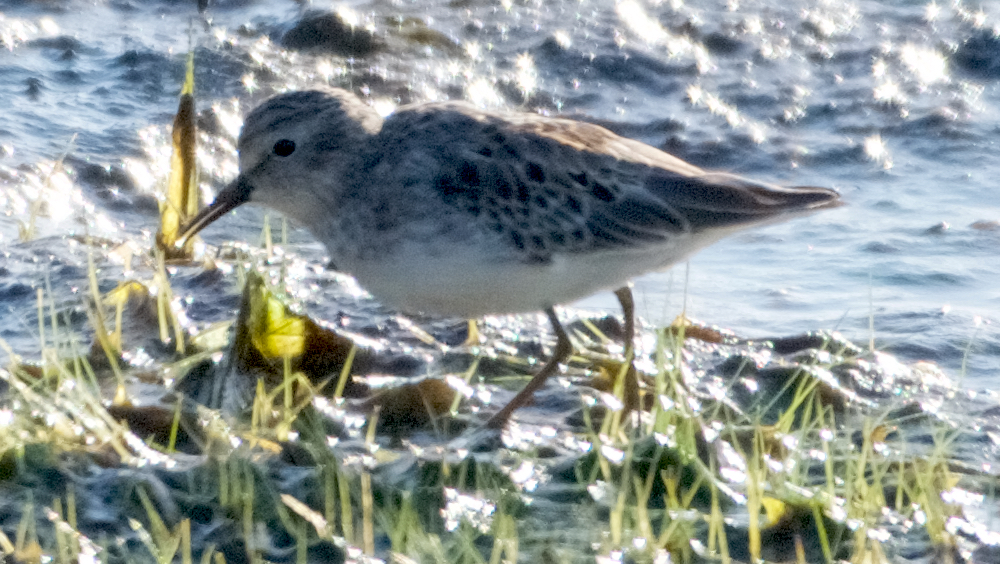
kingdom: Animalia
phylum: Chordata
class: Aves
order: Charadriiformes
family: Scolopacidae
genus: Calidris
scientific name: Calidris minutilla
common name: Least sandpiper
